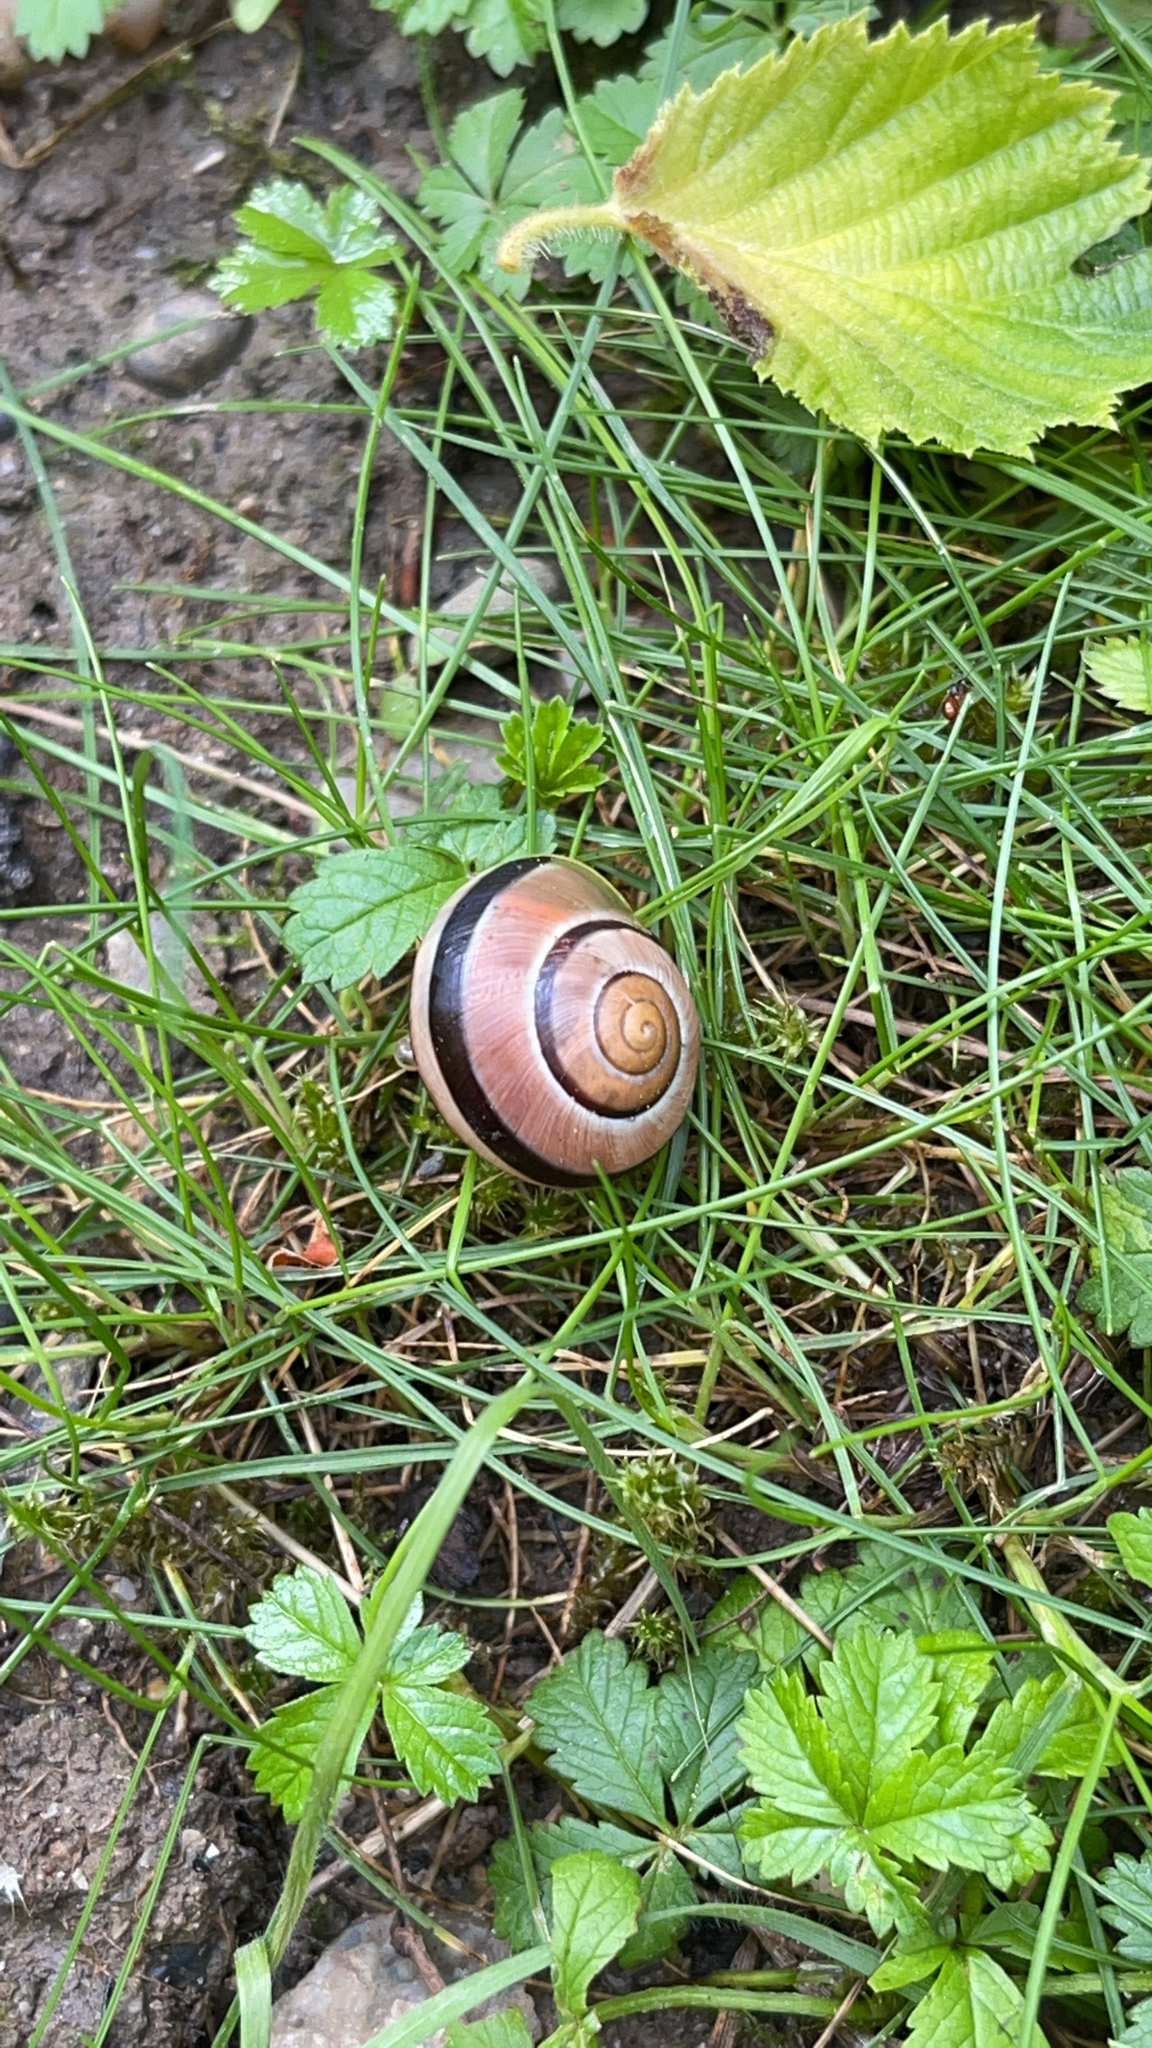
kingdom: Animalia
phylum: Mollusca
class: Gastropoda
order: Stylommatophora
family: Helicidae
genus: Cepaea
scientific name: Cepaea nemoralis
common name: Grovesnail
